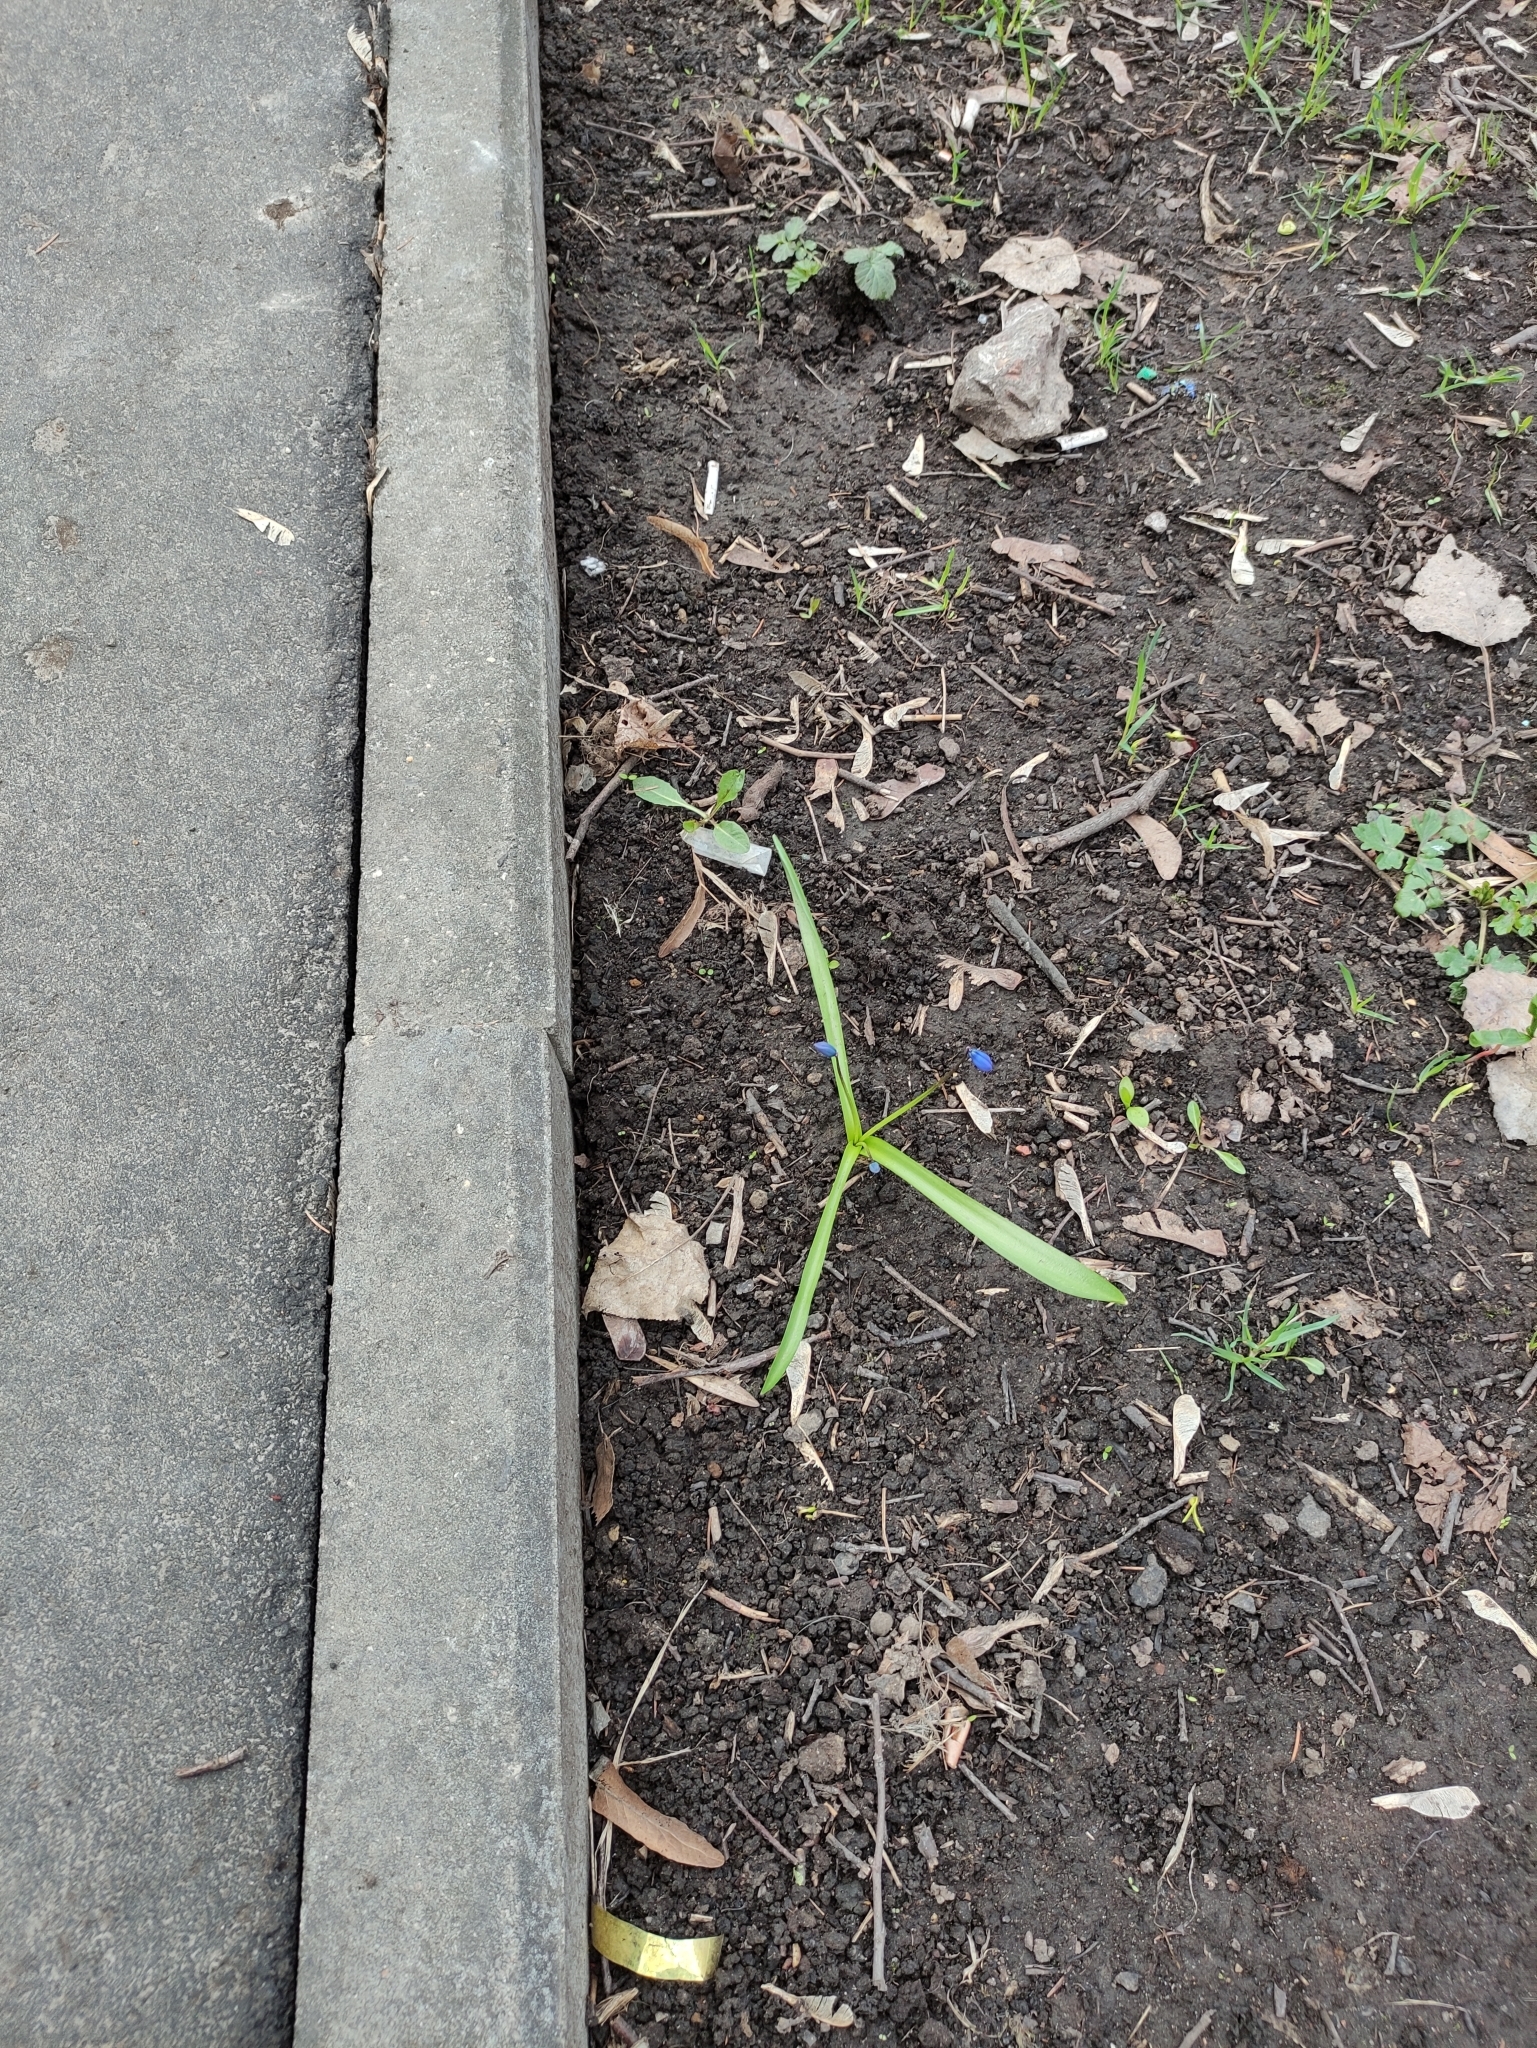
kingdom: Plantae
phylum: Tracheophyta
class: Liliopsida
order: Asparagales
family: Asparagaceae
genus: Scilla
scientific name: Scilla siberica
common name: Siberian squill
